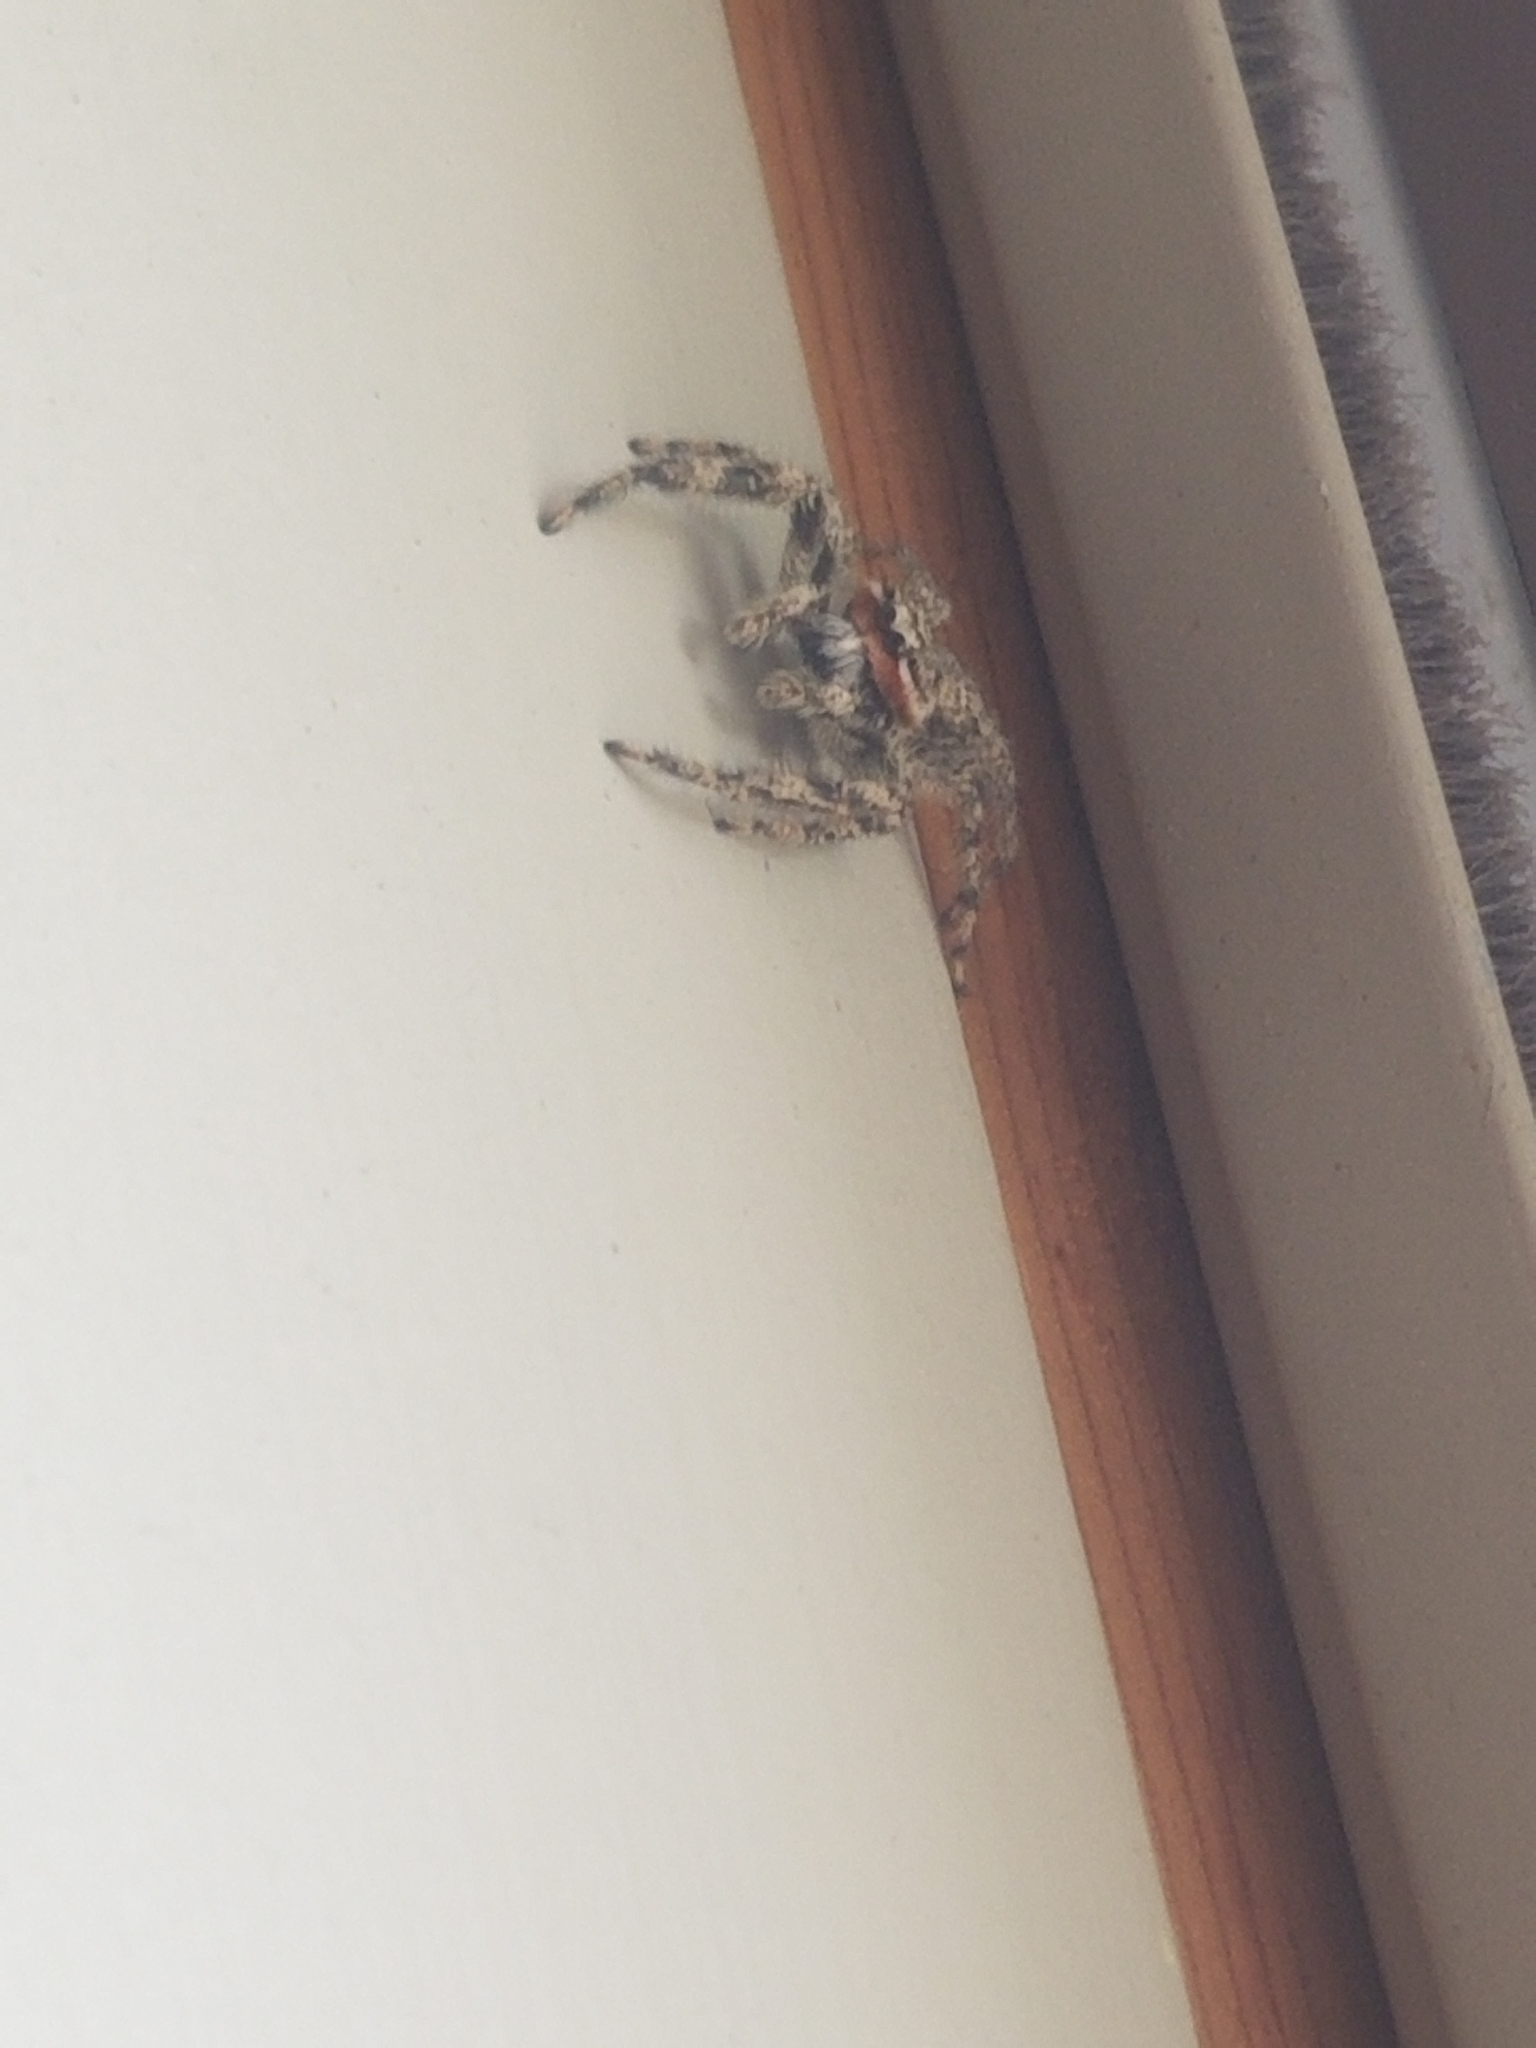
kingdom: Animalia
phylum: Arthropoda
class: Arachnida
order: Araneae
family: Salticidae
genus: Platycryptus
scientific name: Platycryptus undatus
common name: Tan jumping spider
